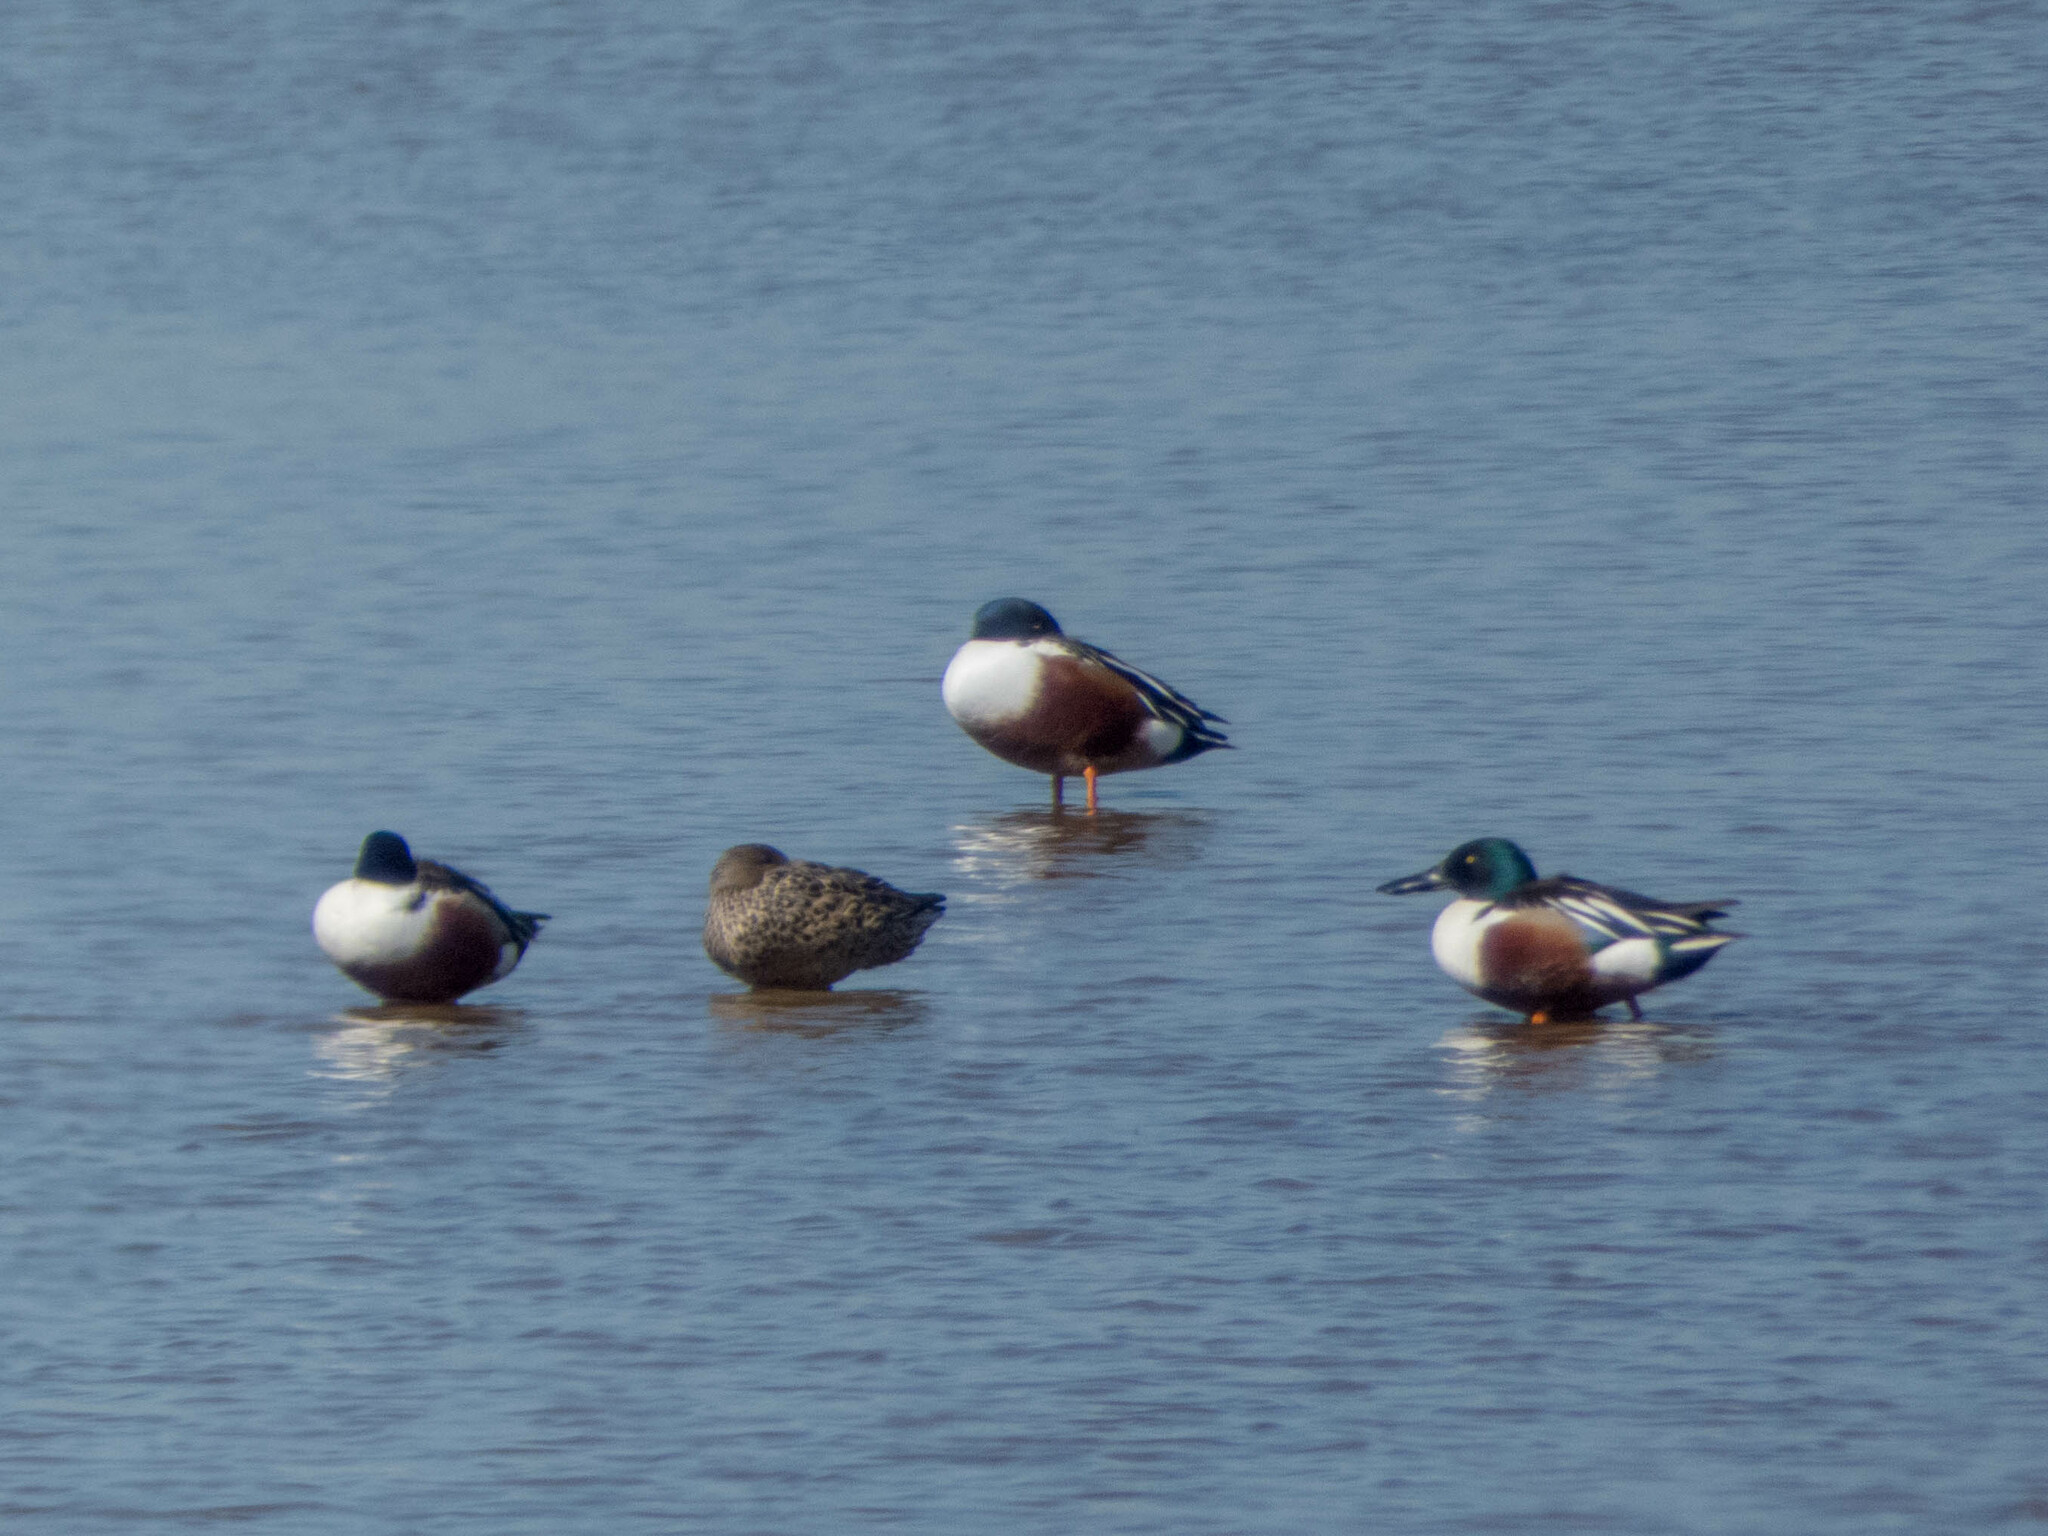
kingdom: Animalia
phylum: Chordata
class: Aves
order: Anseriformes
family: Anatidae
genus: Spatula
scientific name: Spatula clypeata
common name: Northern shoveler
